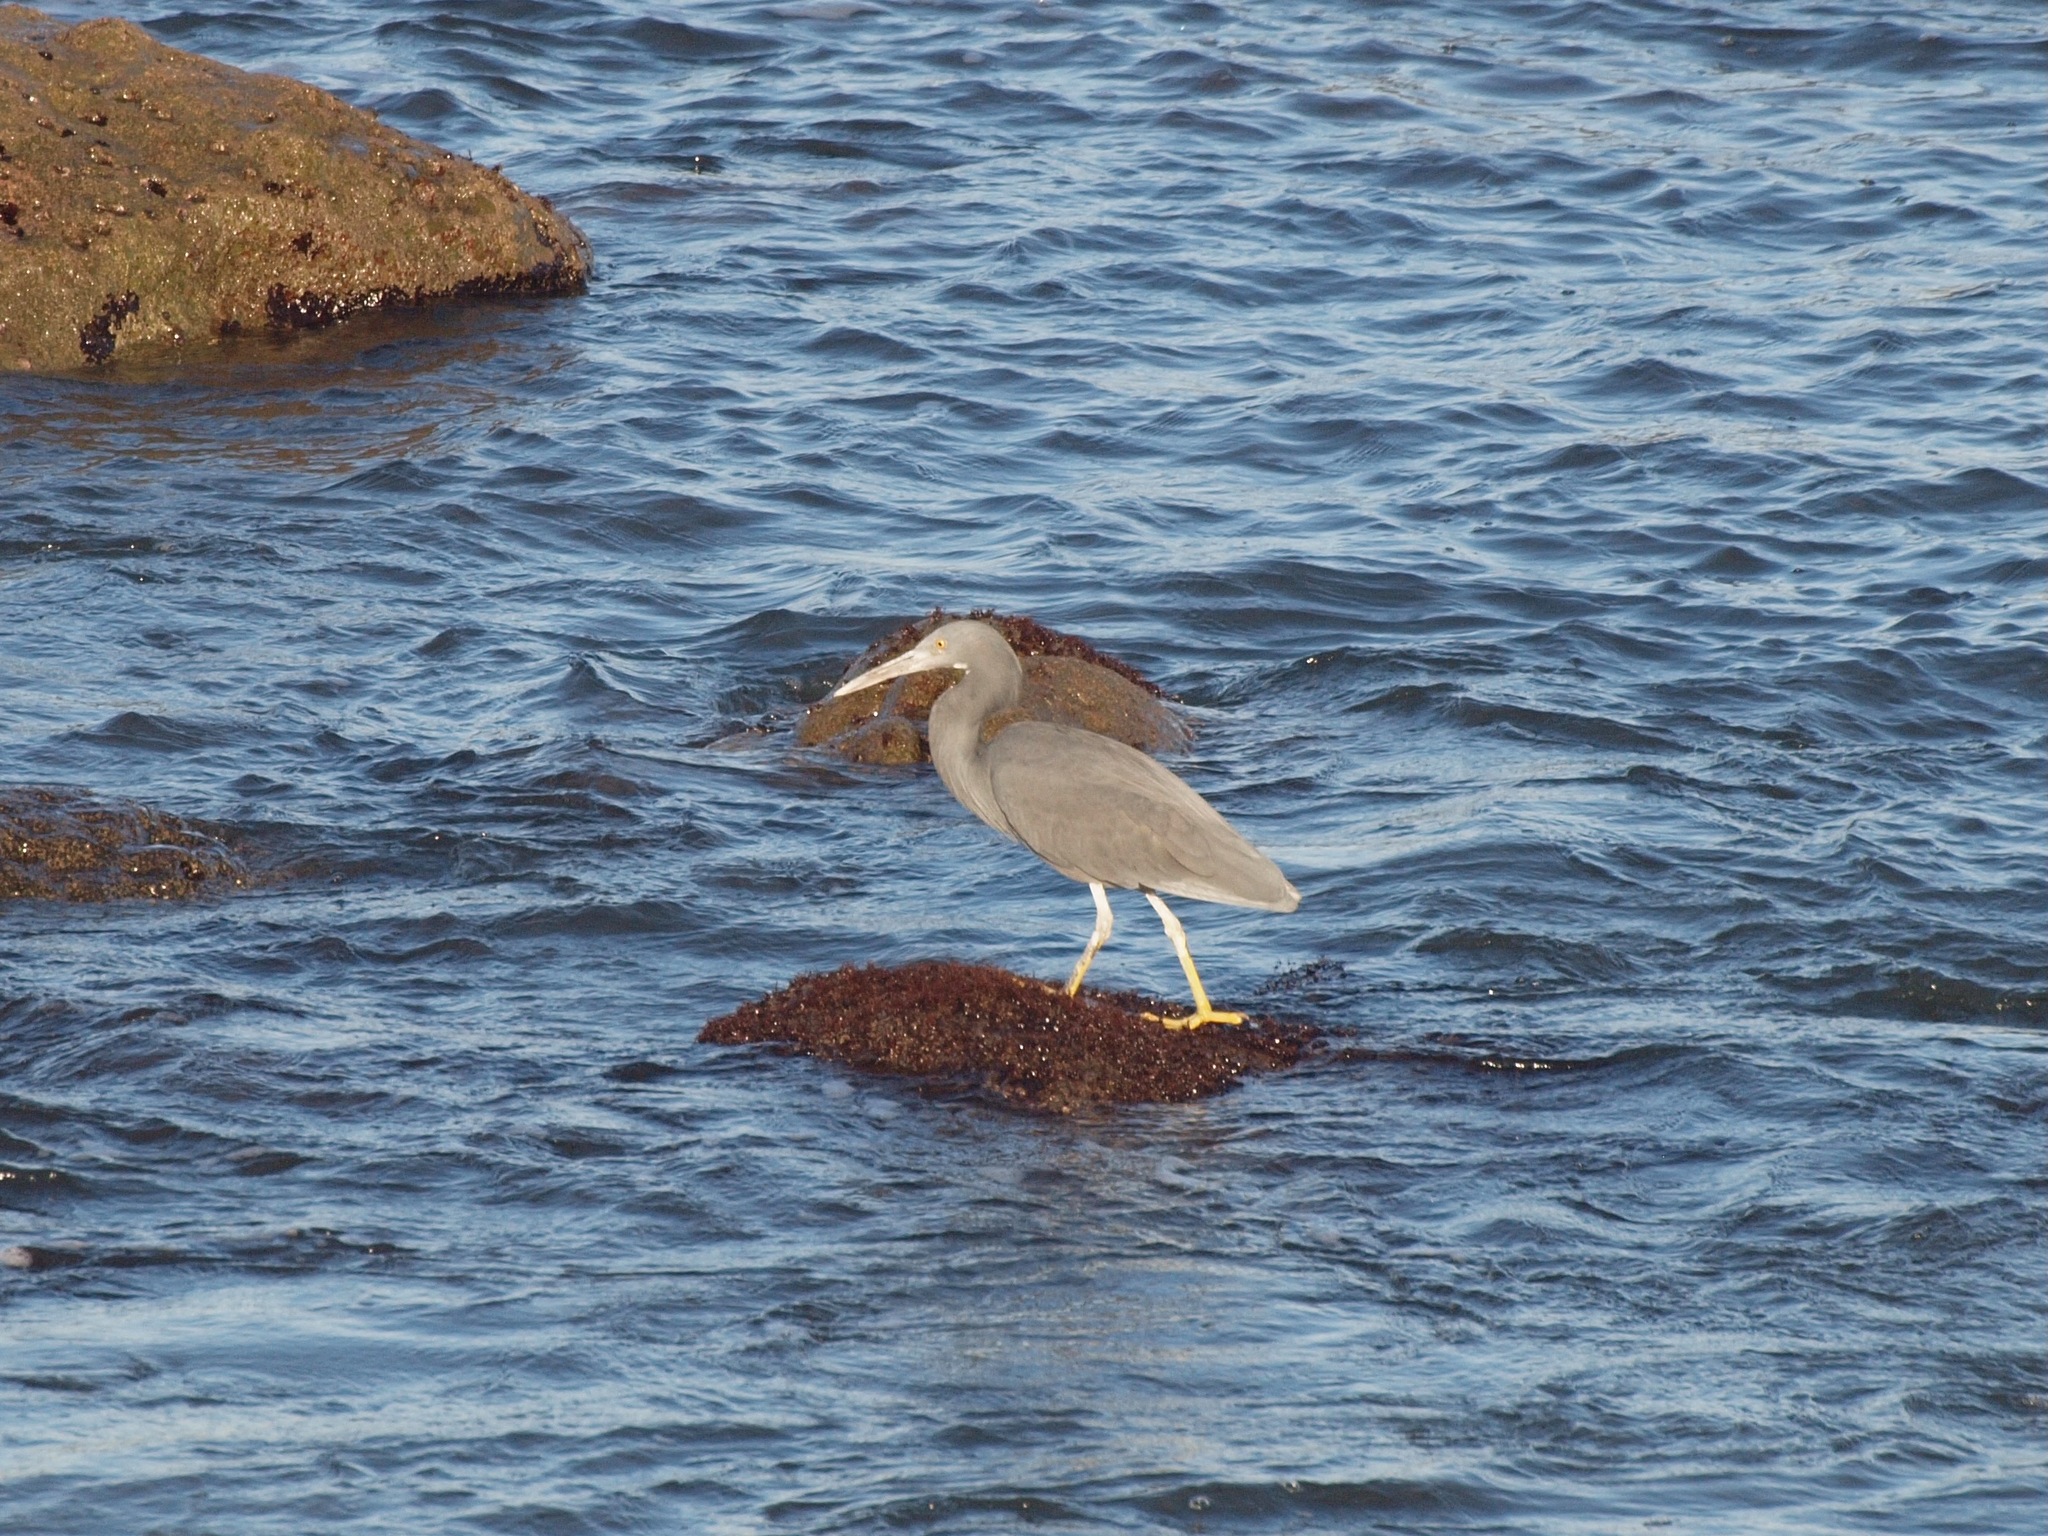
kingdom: Animalia
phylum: Chordata
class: Aves
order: Pelecaniformes
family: Ardeidae
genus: Egretta
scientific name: Egretta sacra
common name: Pacific reef heron
